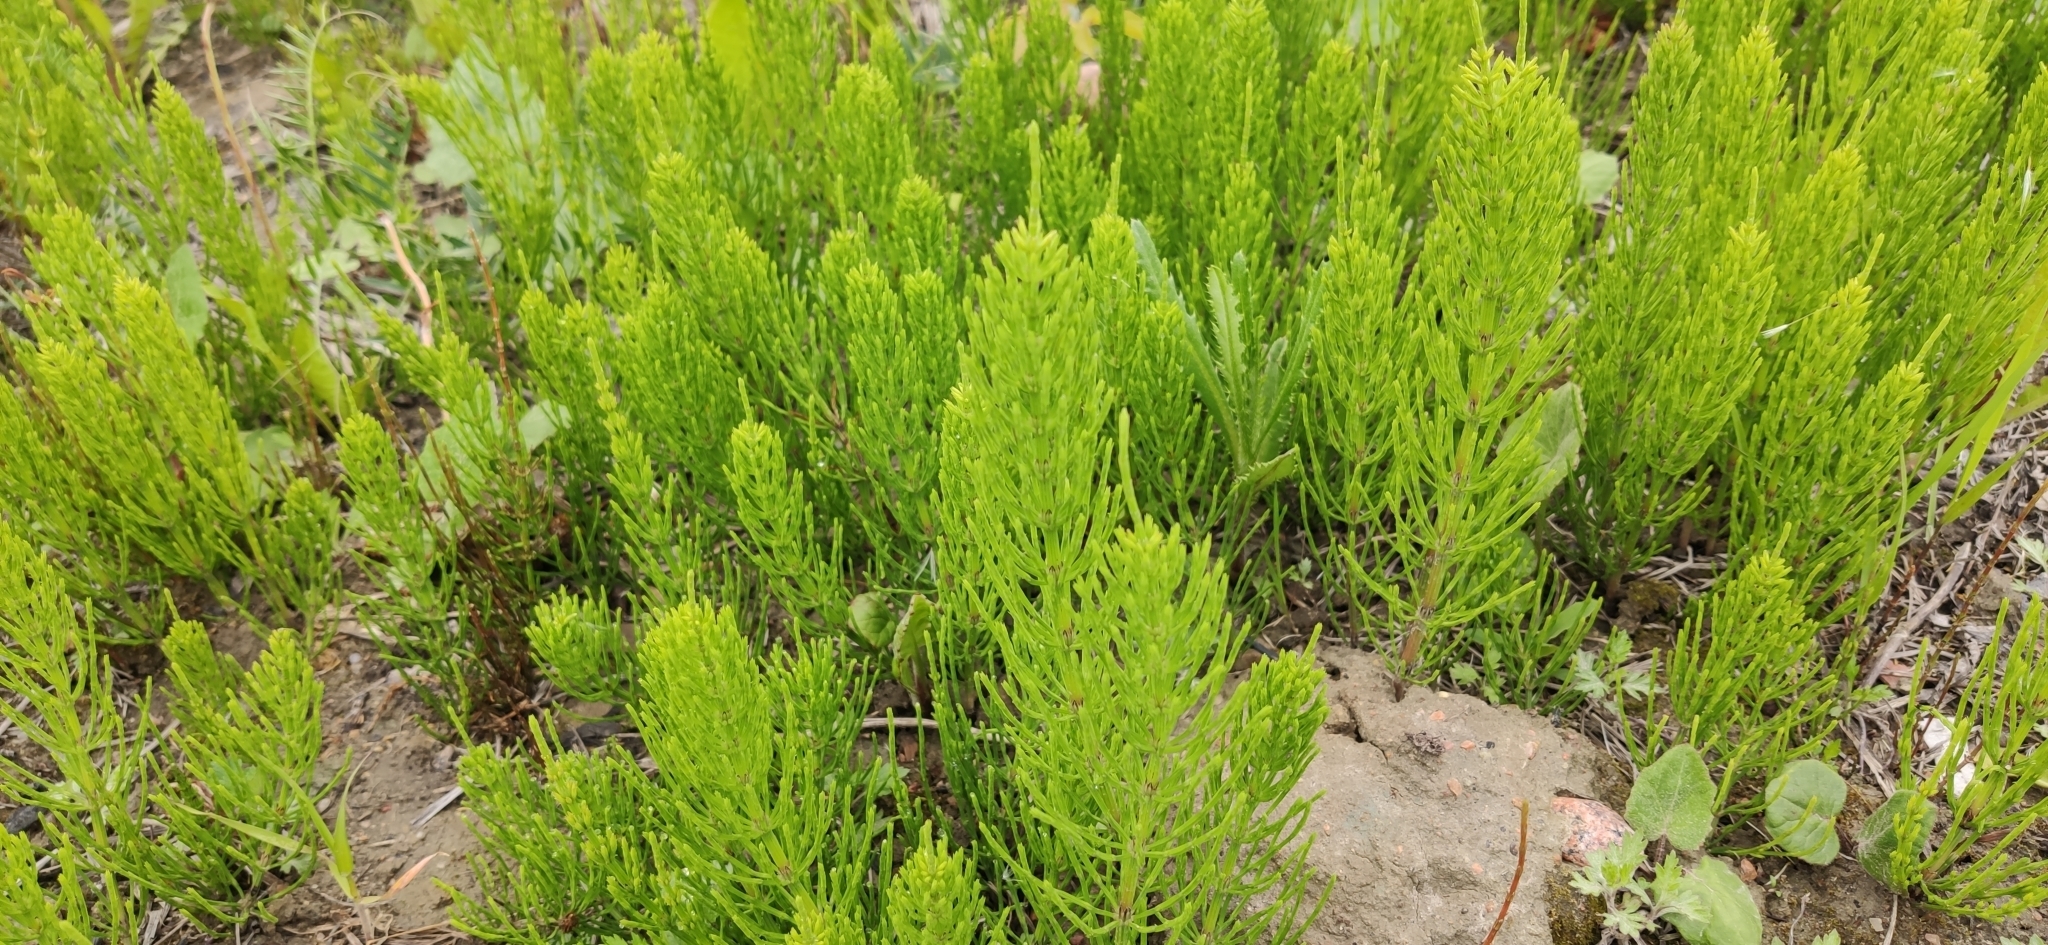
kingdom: Plantae
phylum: Tracheophyta
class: Polypodiopsida
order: Equisetales
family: Equisetaceae
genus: Equisetum
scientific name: Equisetum arvense
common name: Field horsetail
